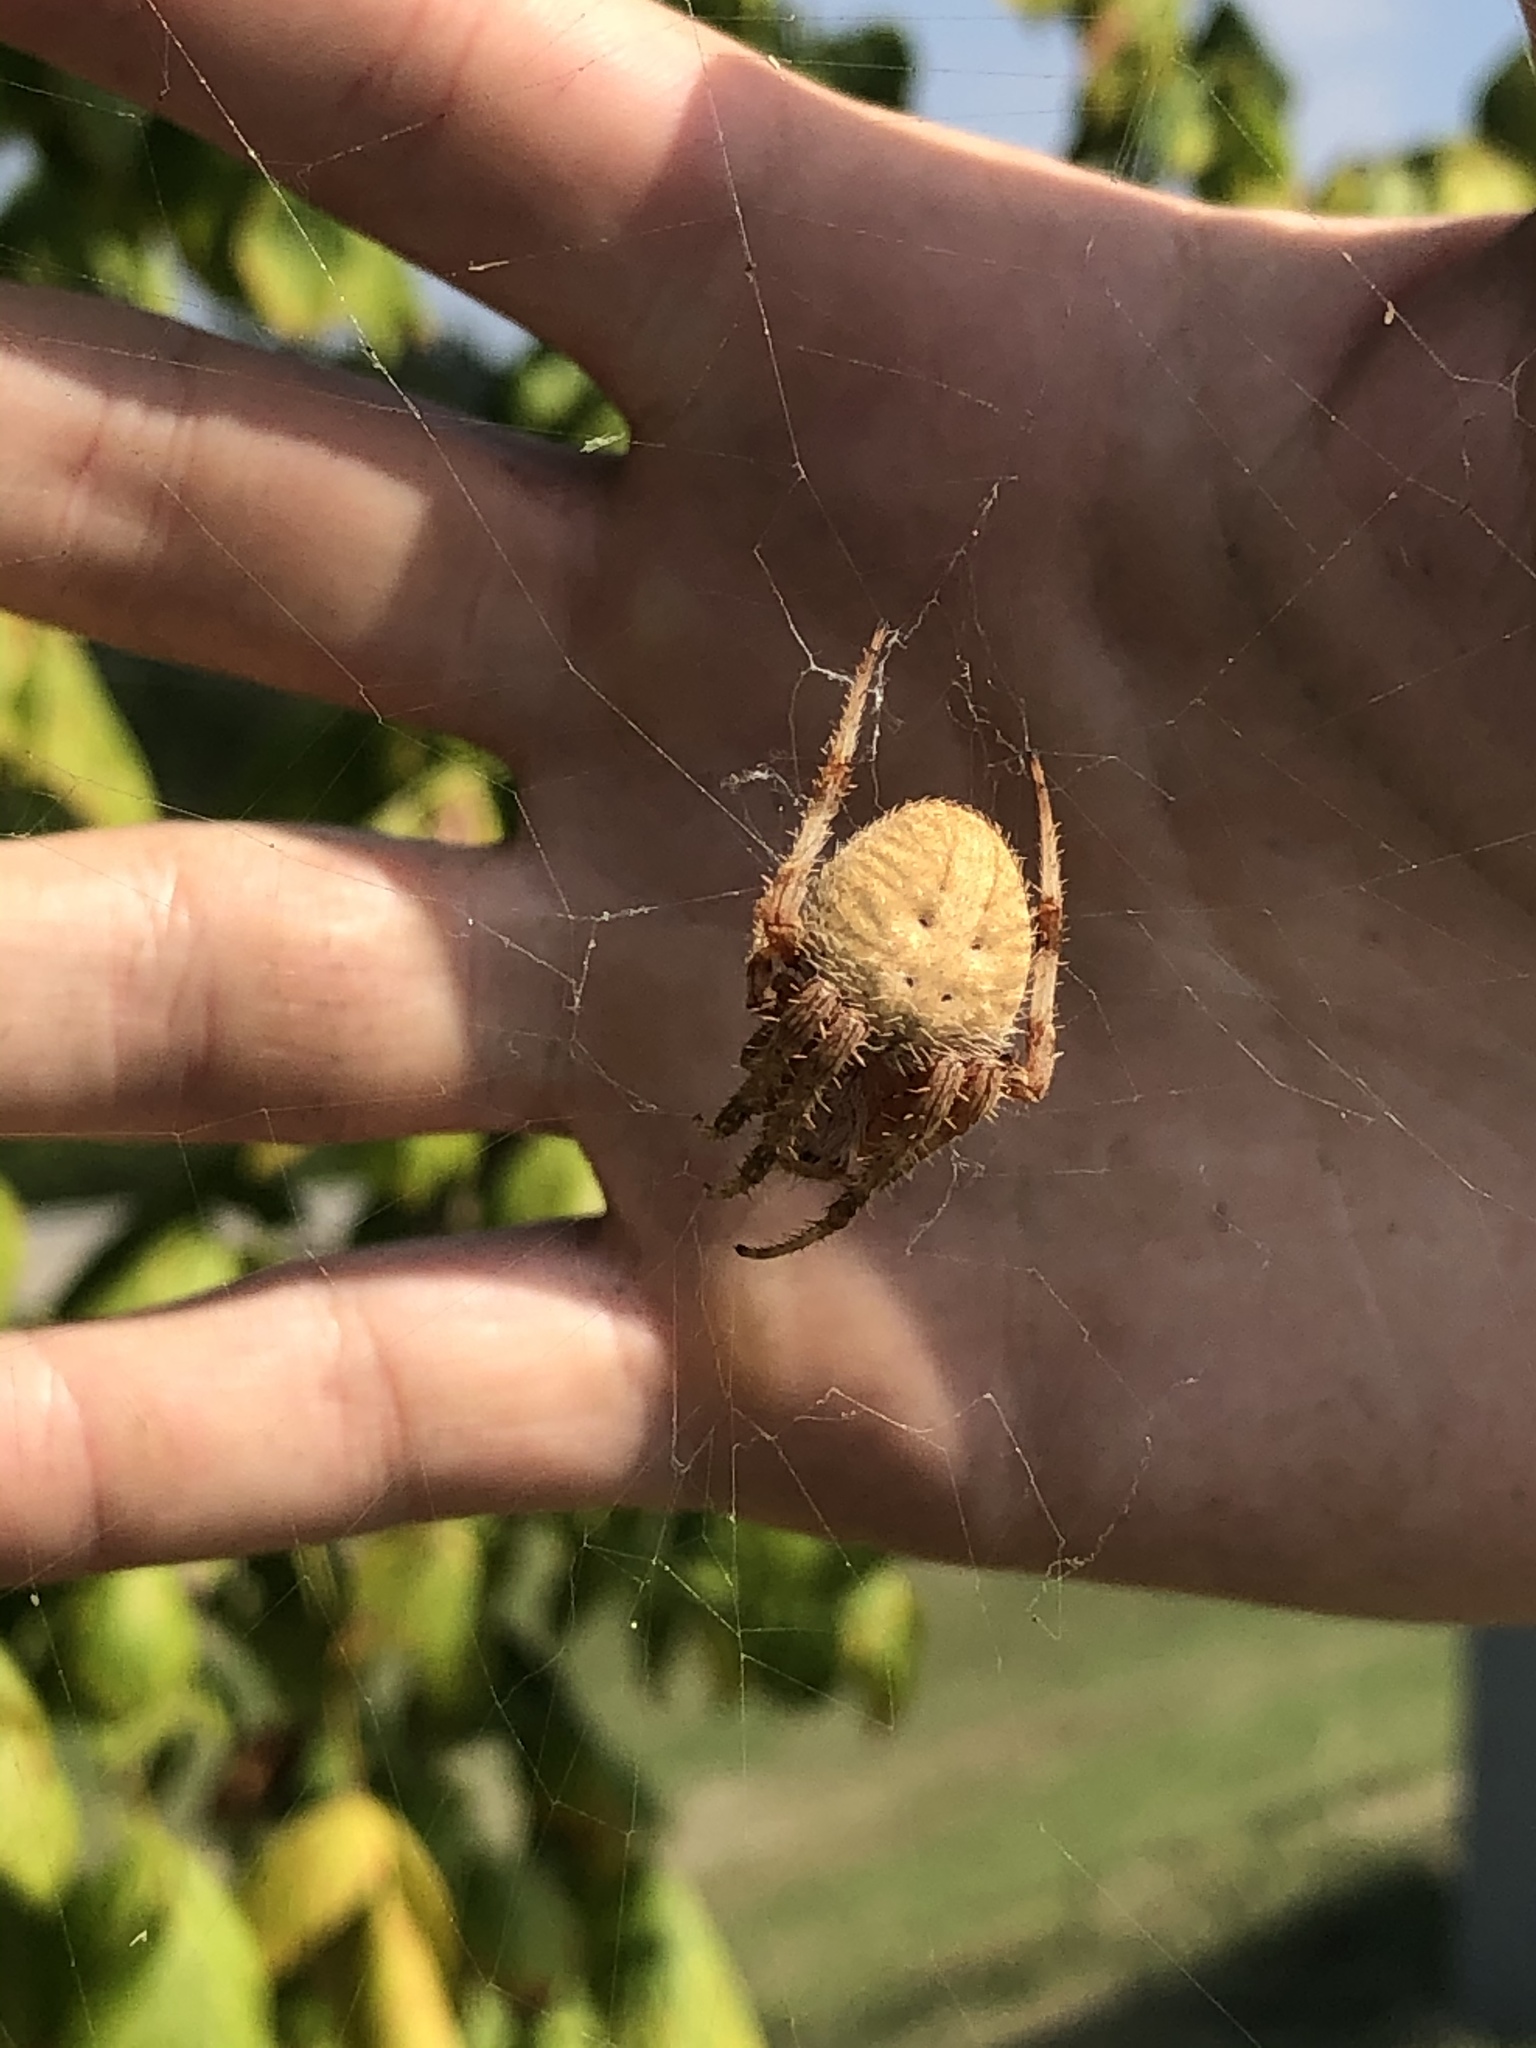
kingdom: Animalia
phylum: Arthropoda
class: Arachnida
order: Araneae
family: Araneidae
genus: Neoscona
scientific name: Neoscona crucifera
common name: Spotted orbweaver
